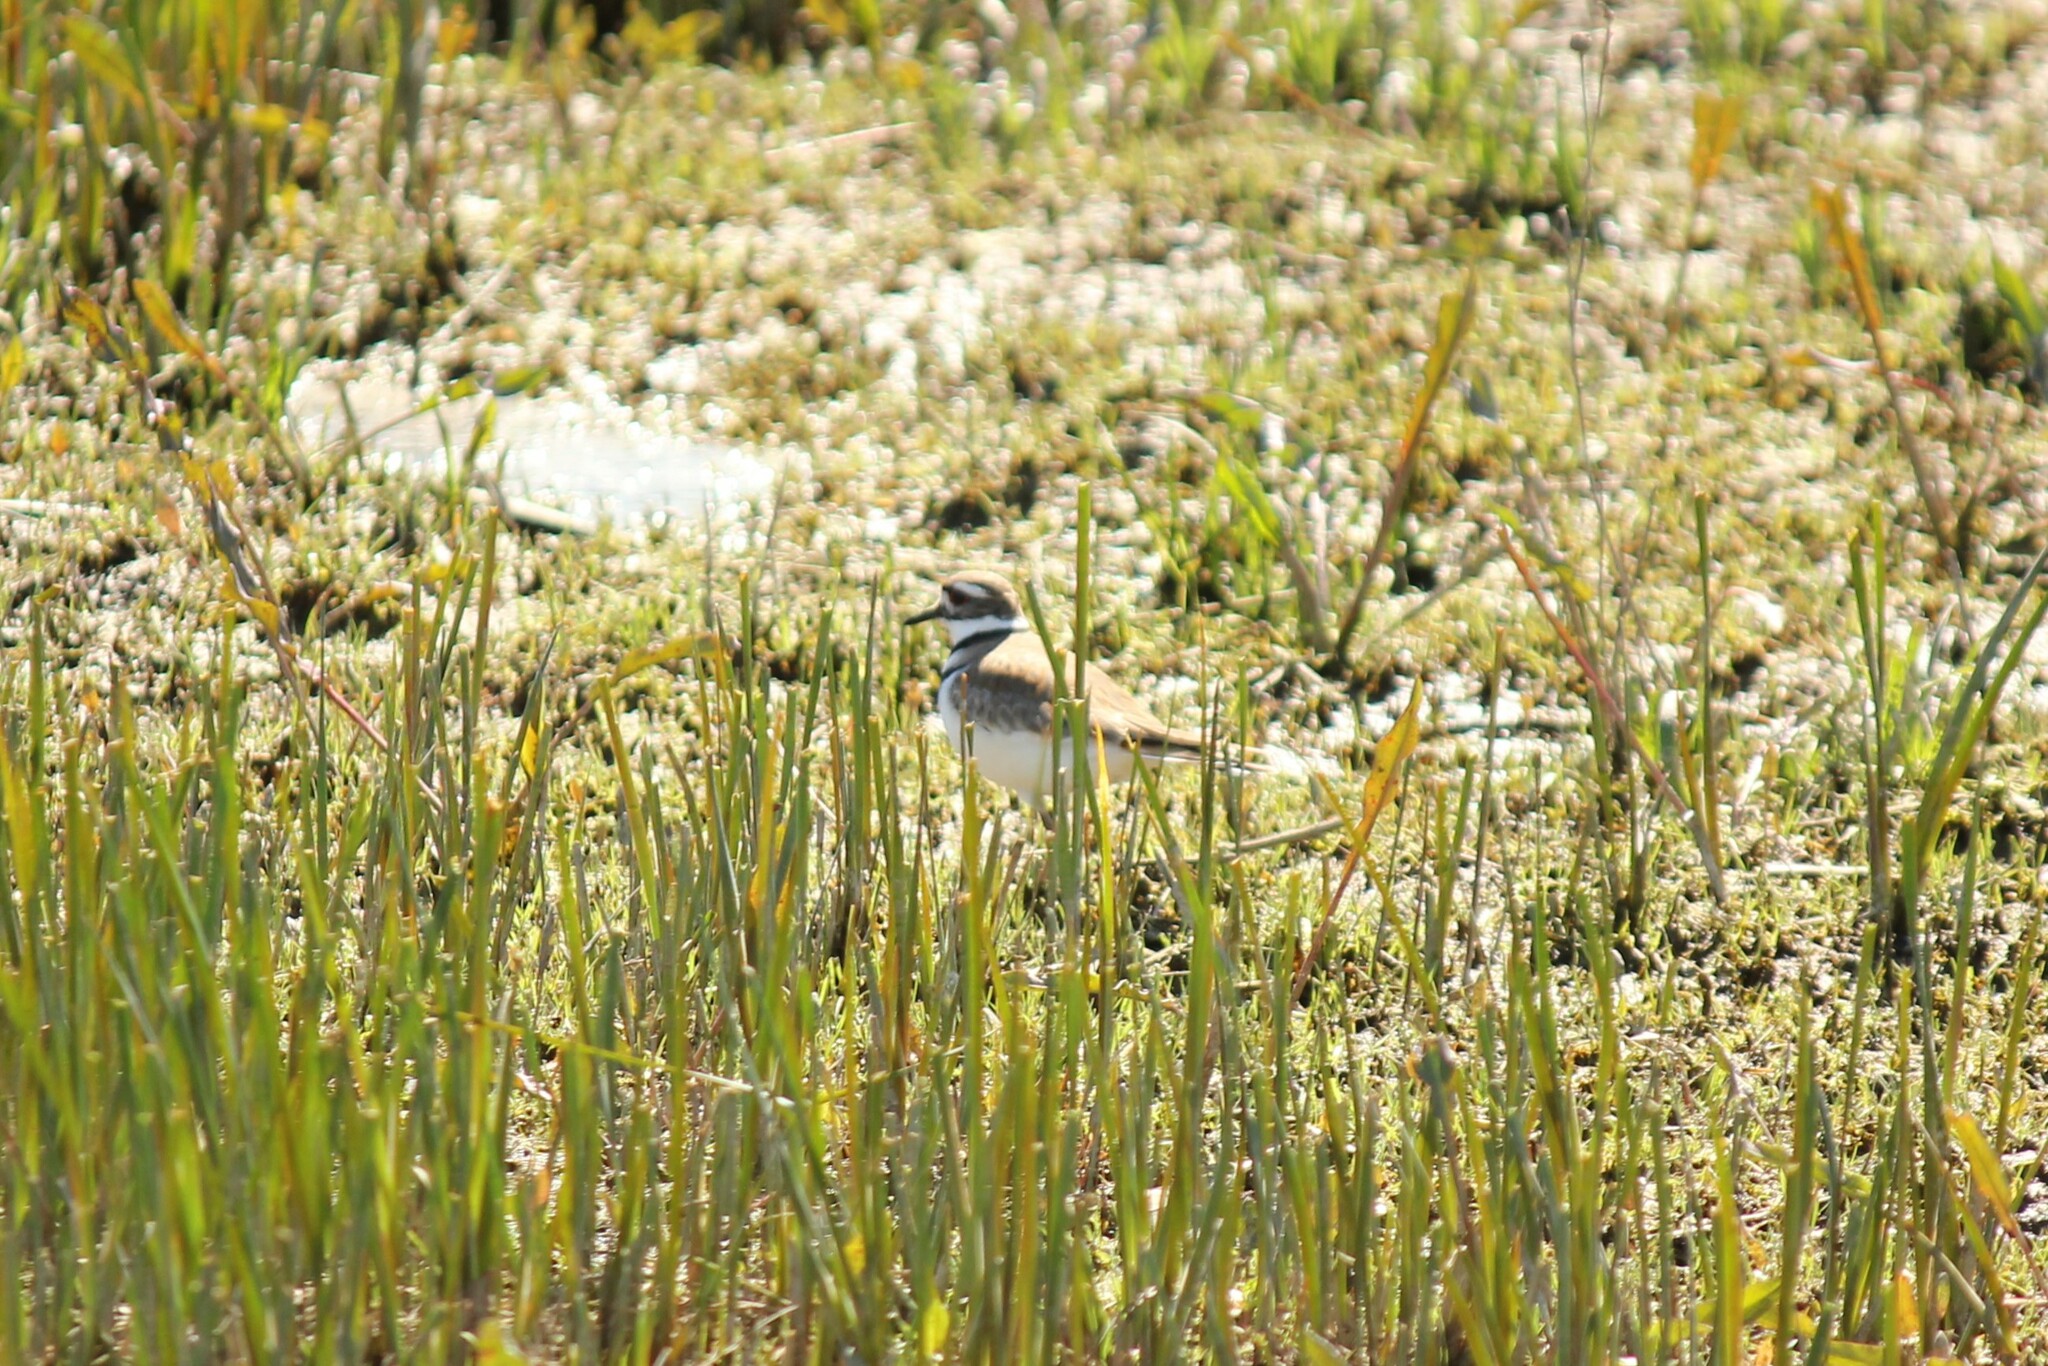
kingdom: Animalia
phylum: Chordata
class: Aves
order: Charadriiformes
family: Charadriidae
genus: Charadrius
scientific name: Charadrius vociferus
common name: Killdeer
